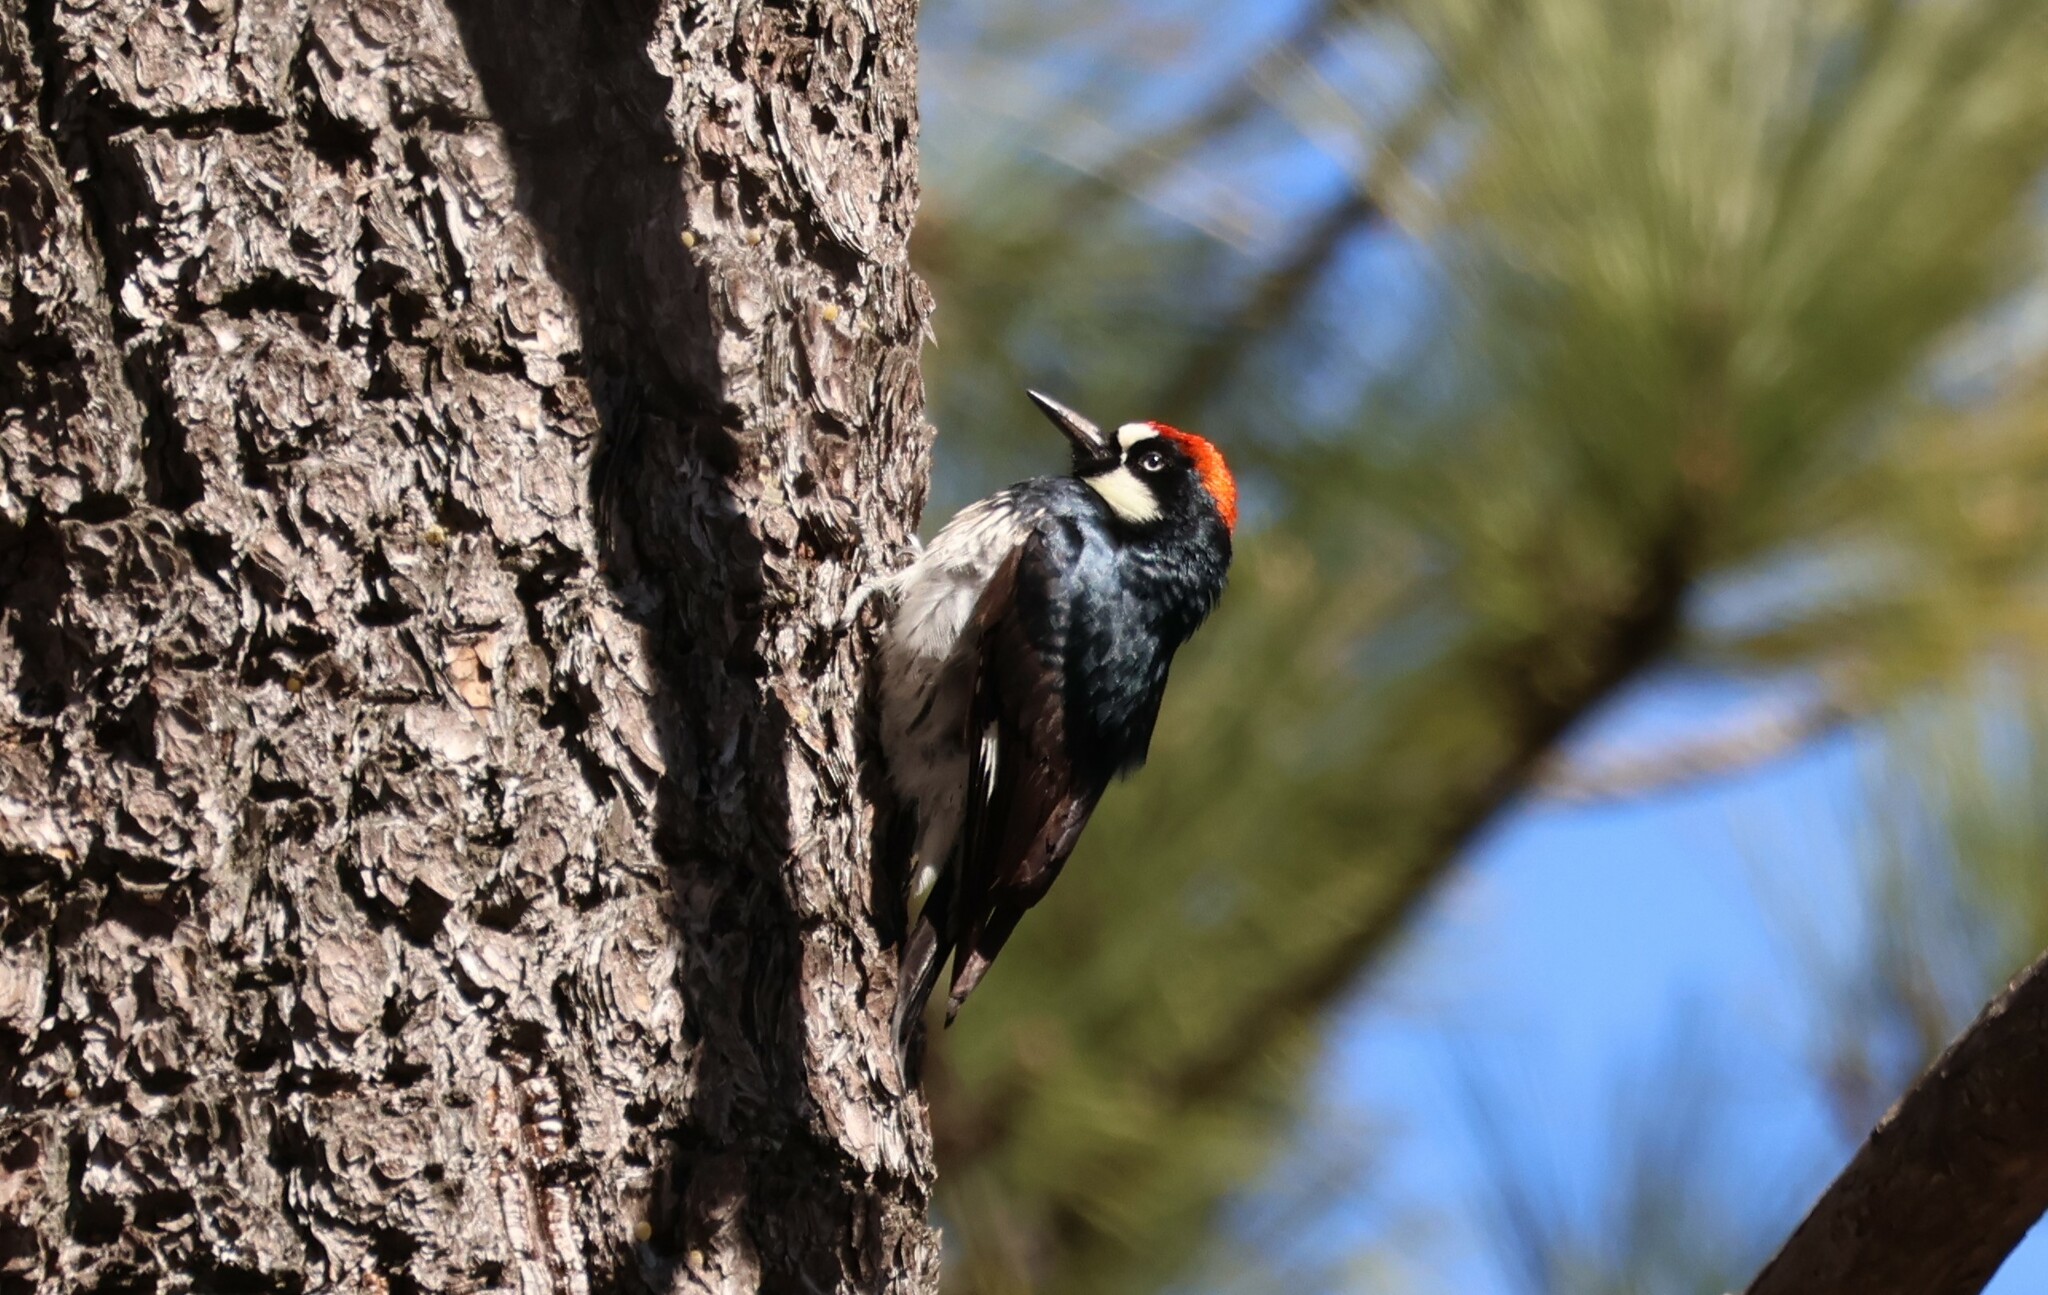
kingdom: Animalia
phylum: Chordata
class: Aves
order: Piciformes
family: Picidae
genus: Melanerpes
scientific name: Melanerpes formicivorus
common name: Acorn woodpecker
